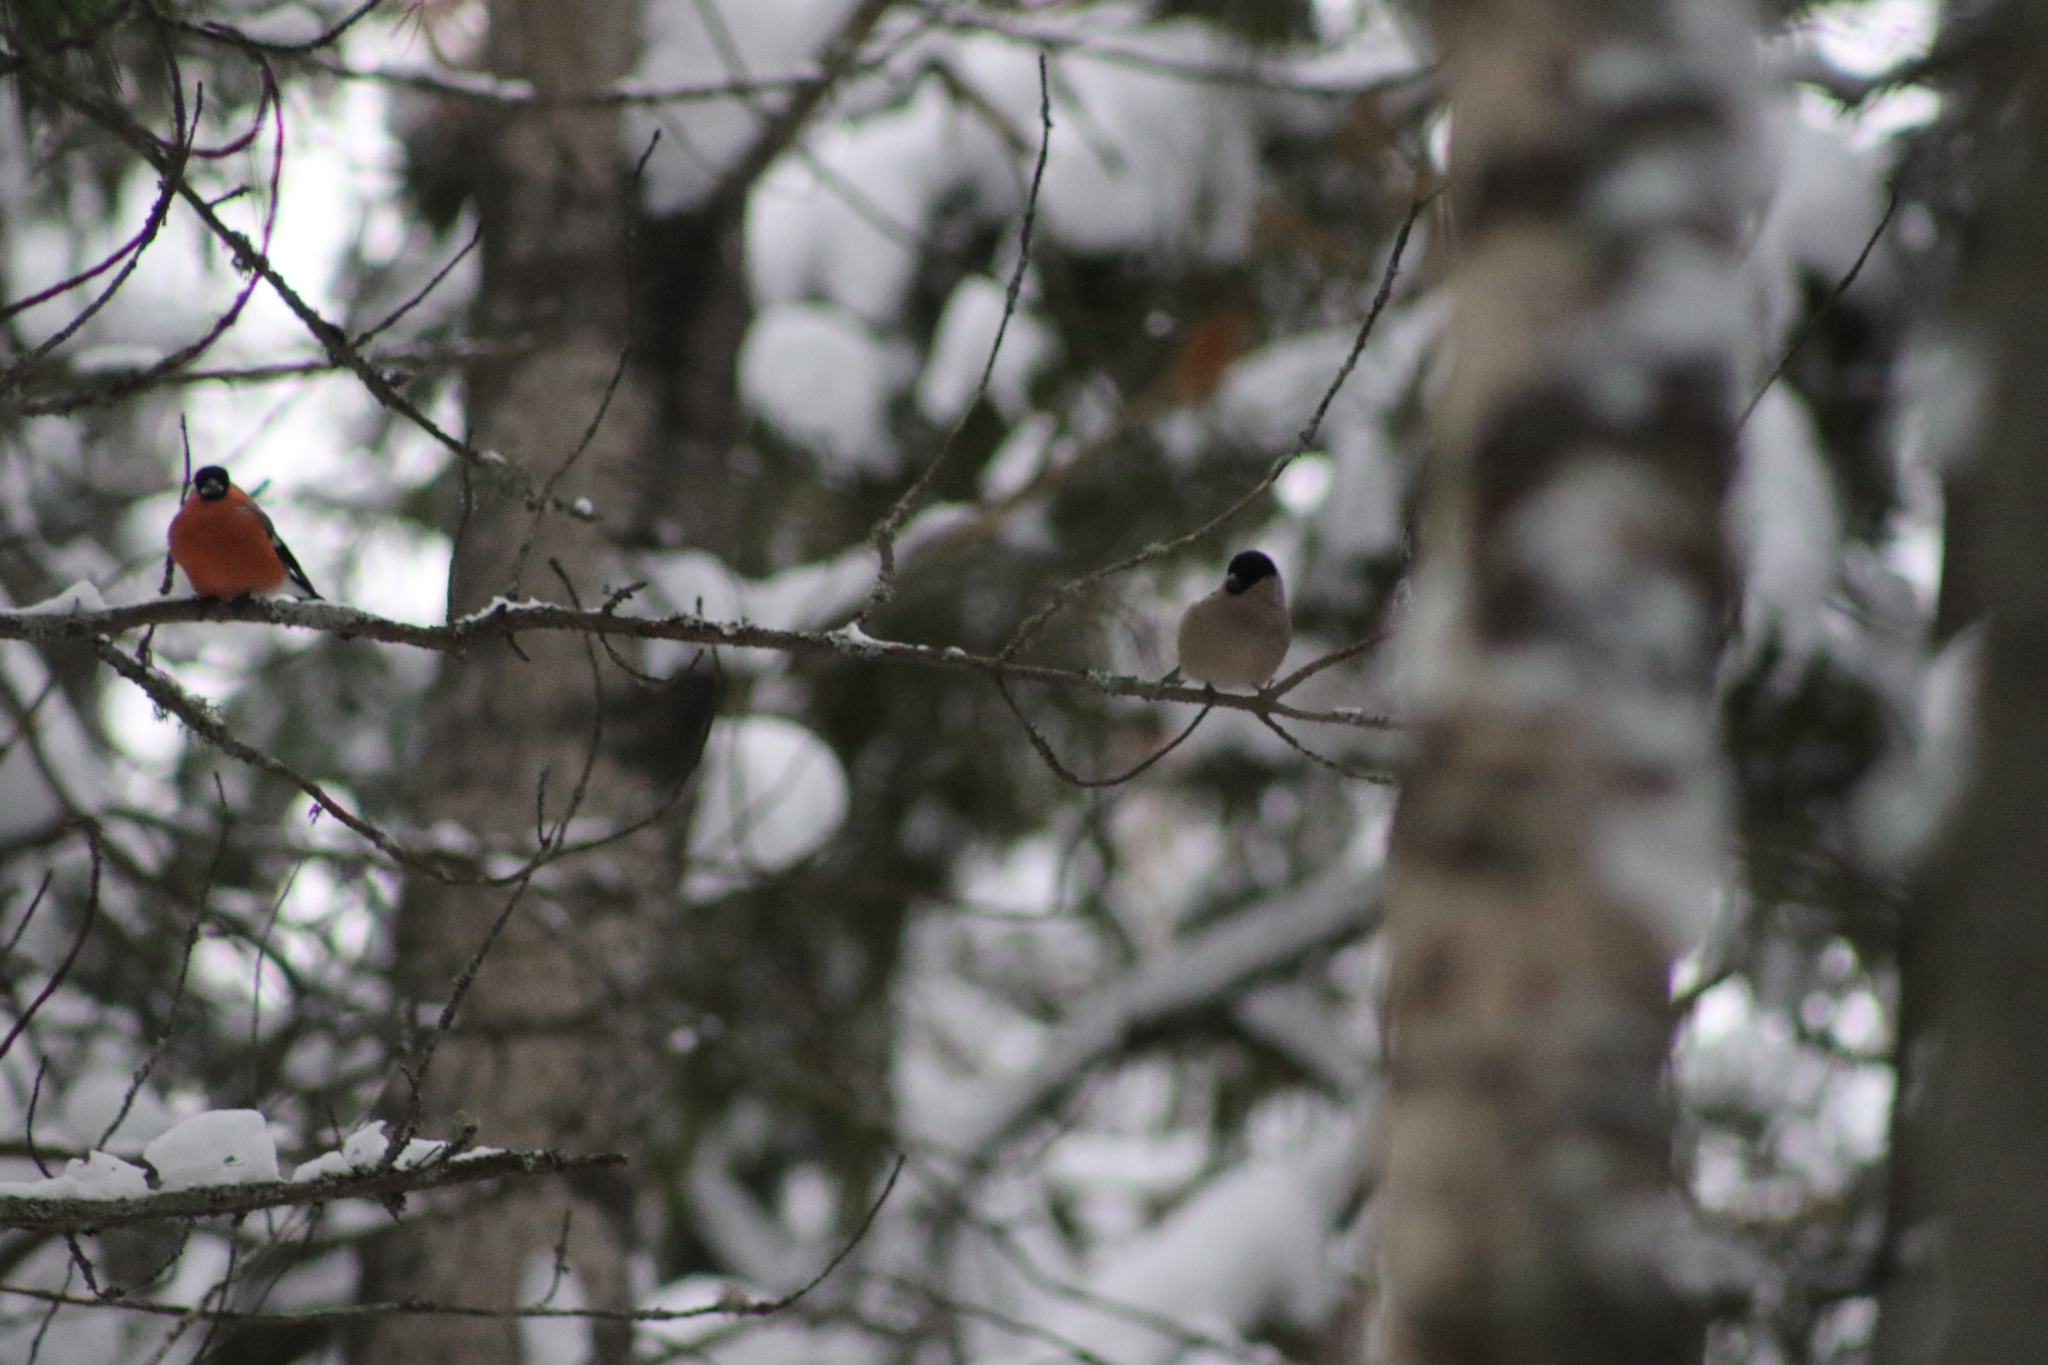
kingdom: Animalia
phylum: Chordata
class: Aves
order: Passeriformes
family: Fringillidae
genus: Pyrrhula
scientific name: Pyrrhula pyrrhula
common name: Eurasian bullfinch
